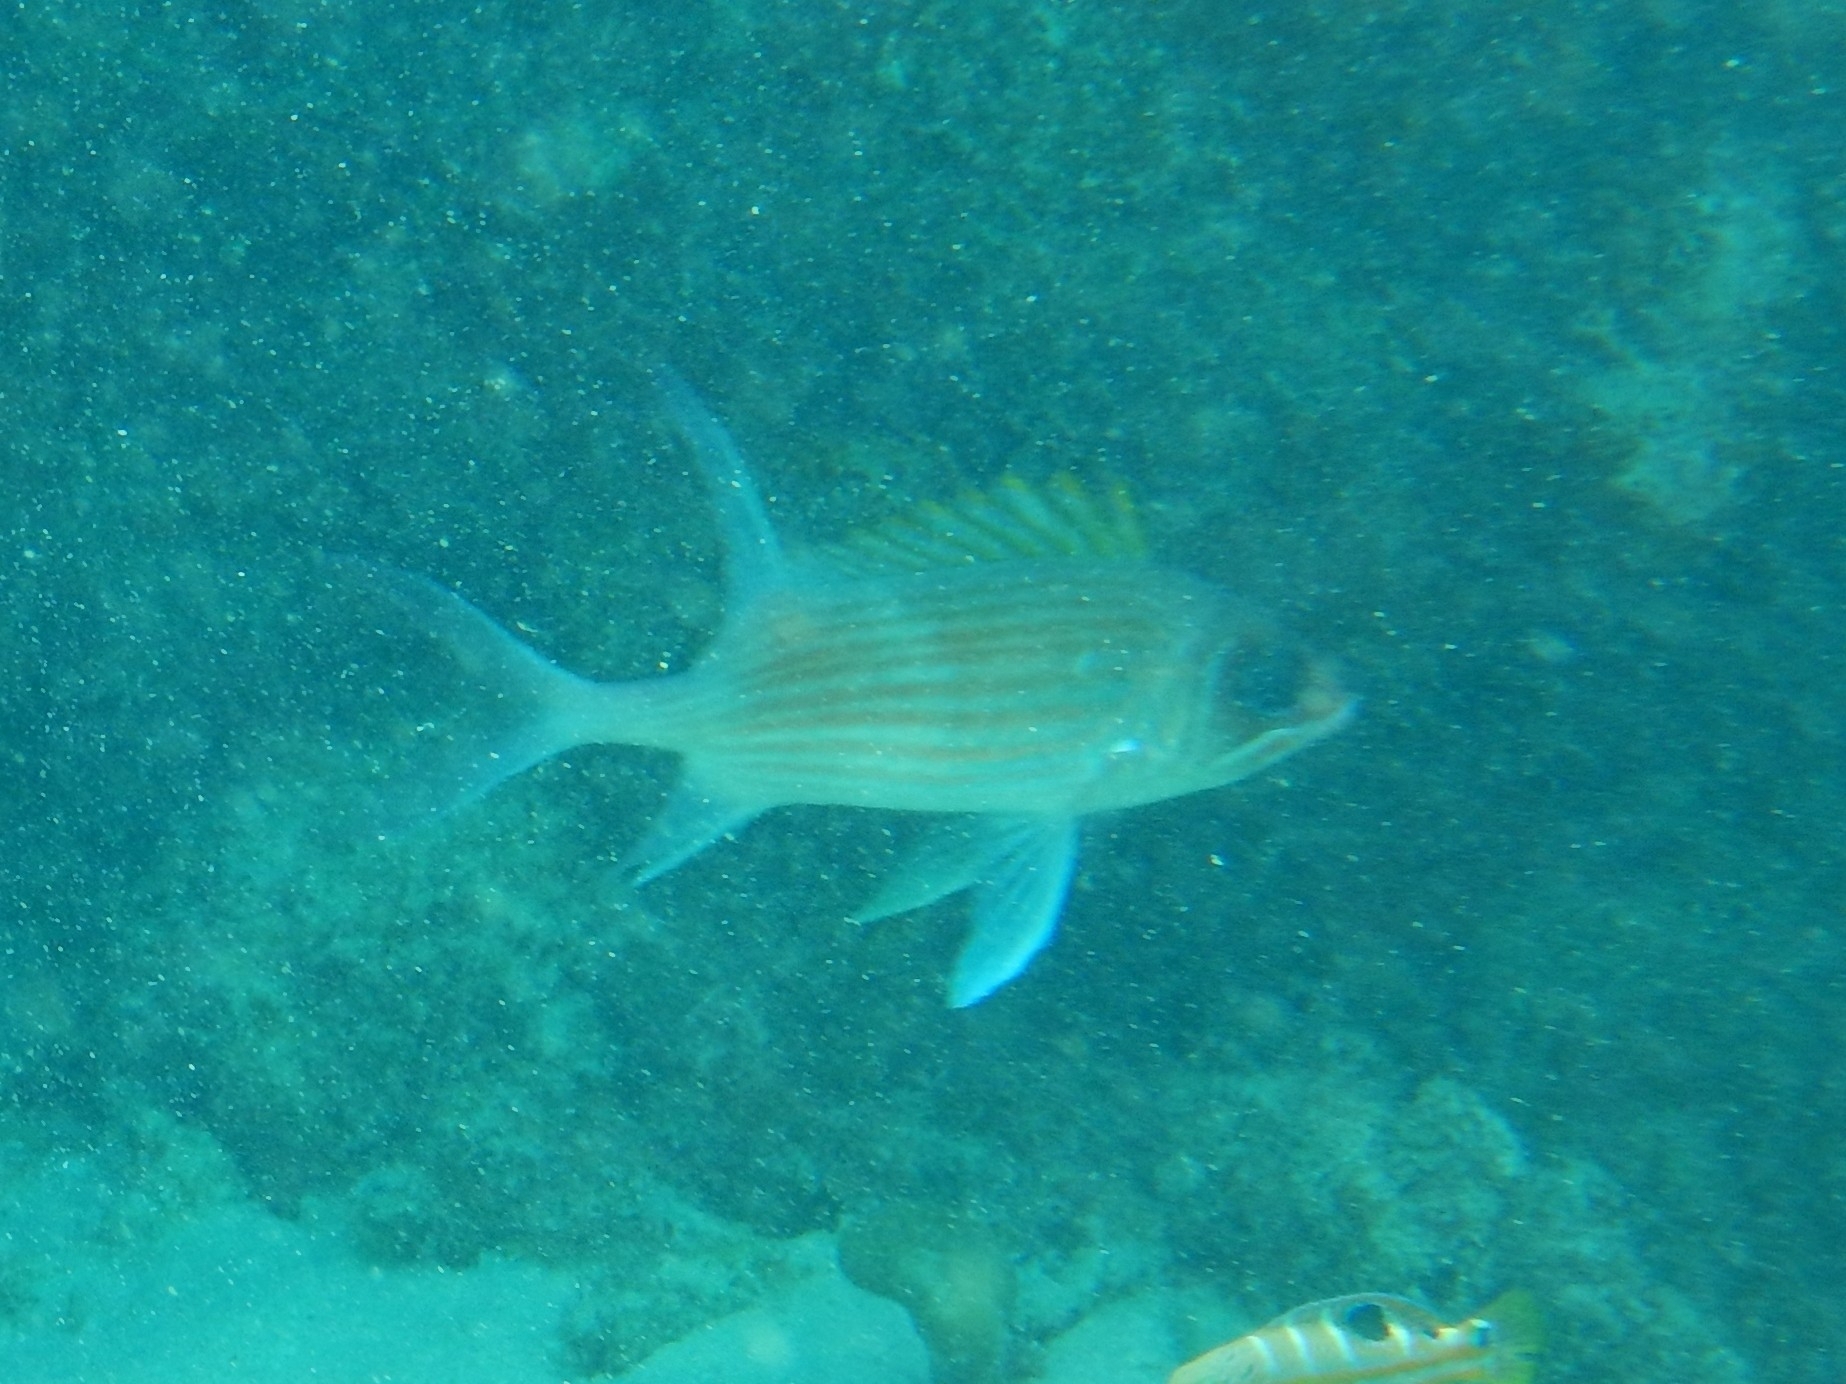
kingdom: Animalia
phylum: Chordata
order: Beryciformes
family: Holocentridae
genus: Holocentrus
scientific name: Holocentrus adscensionis
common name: Squirrelfish
